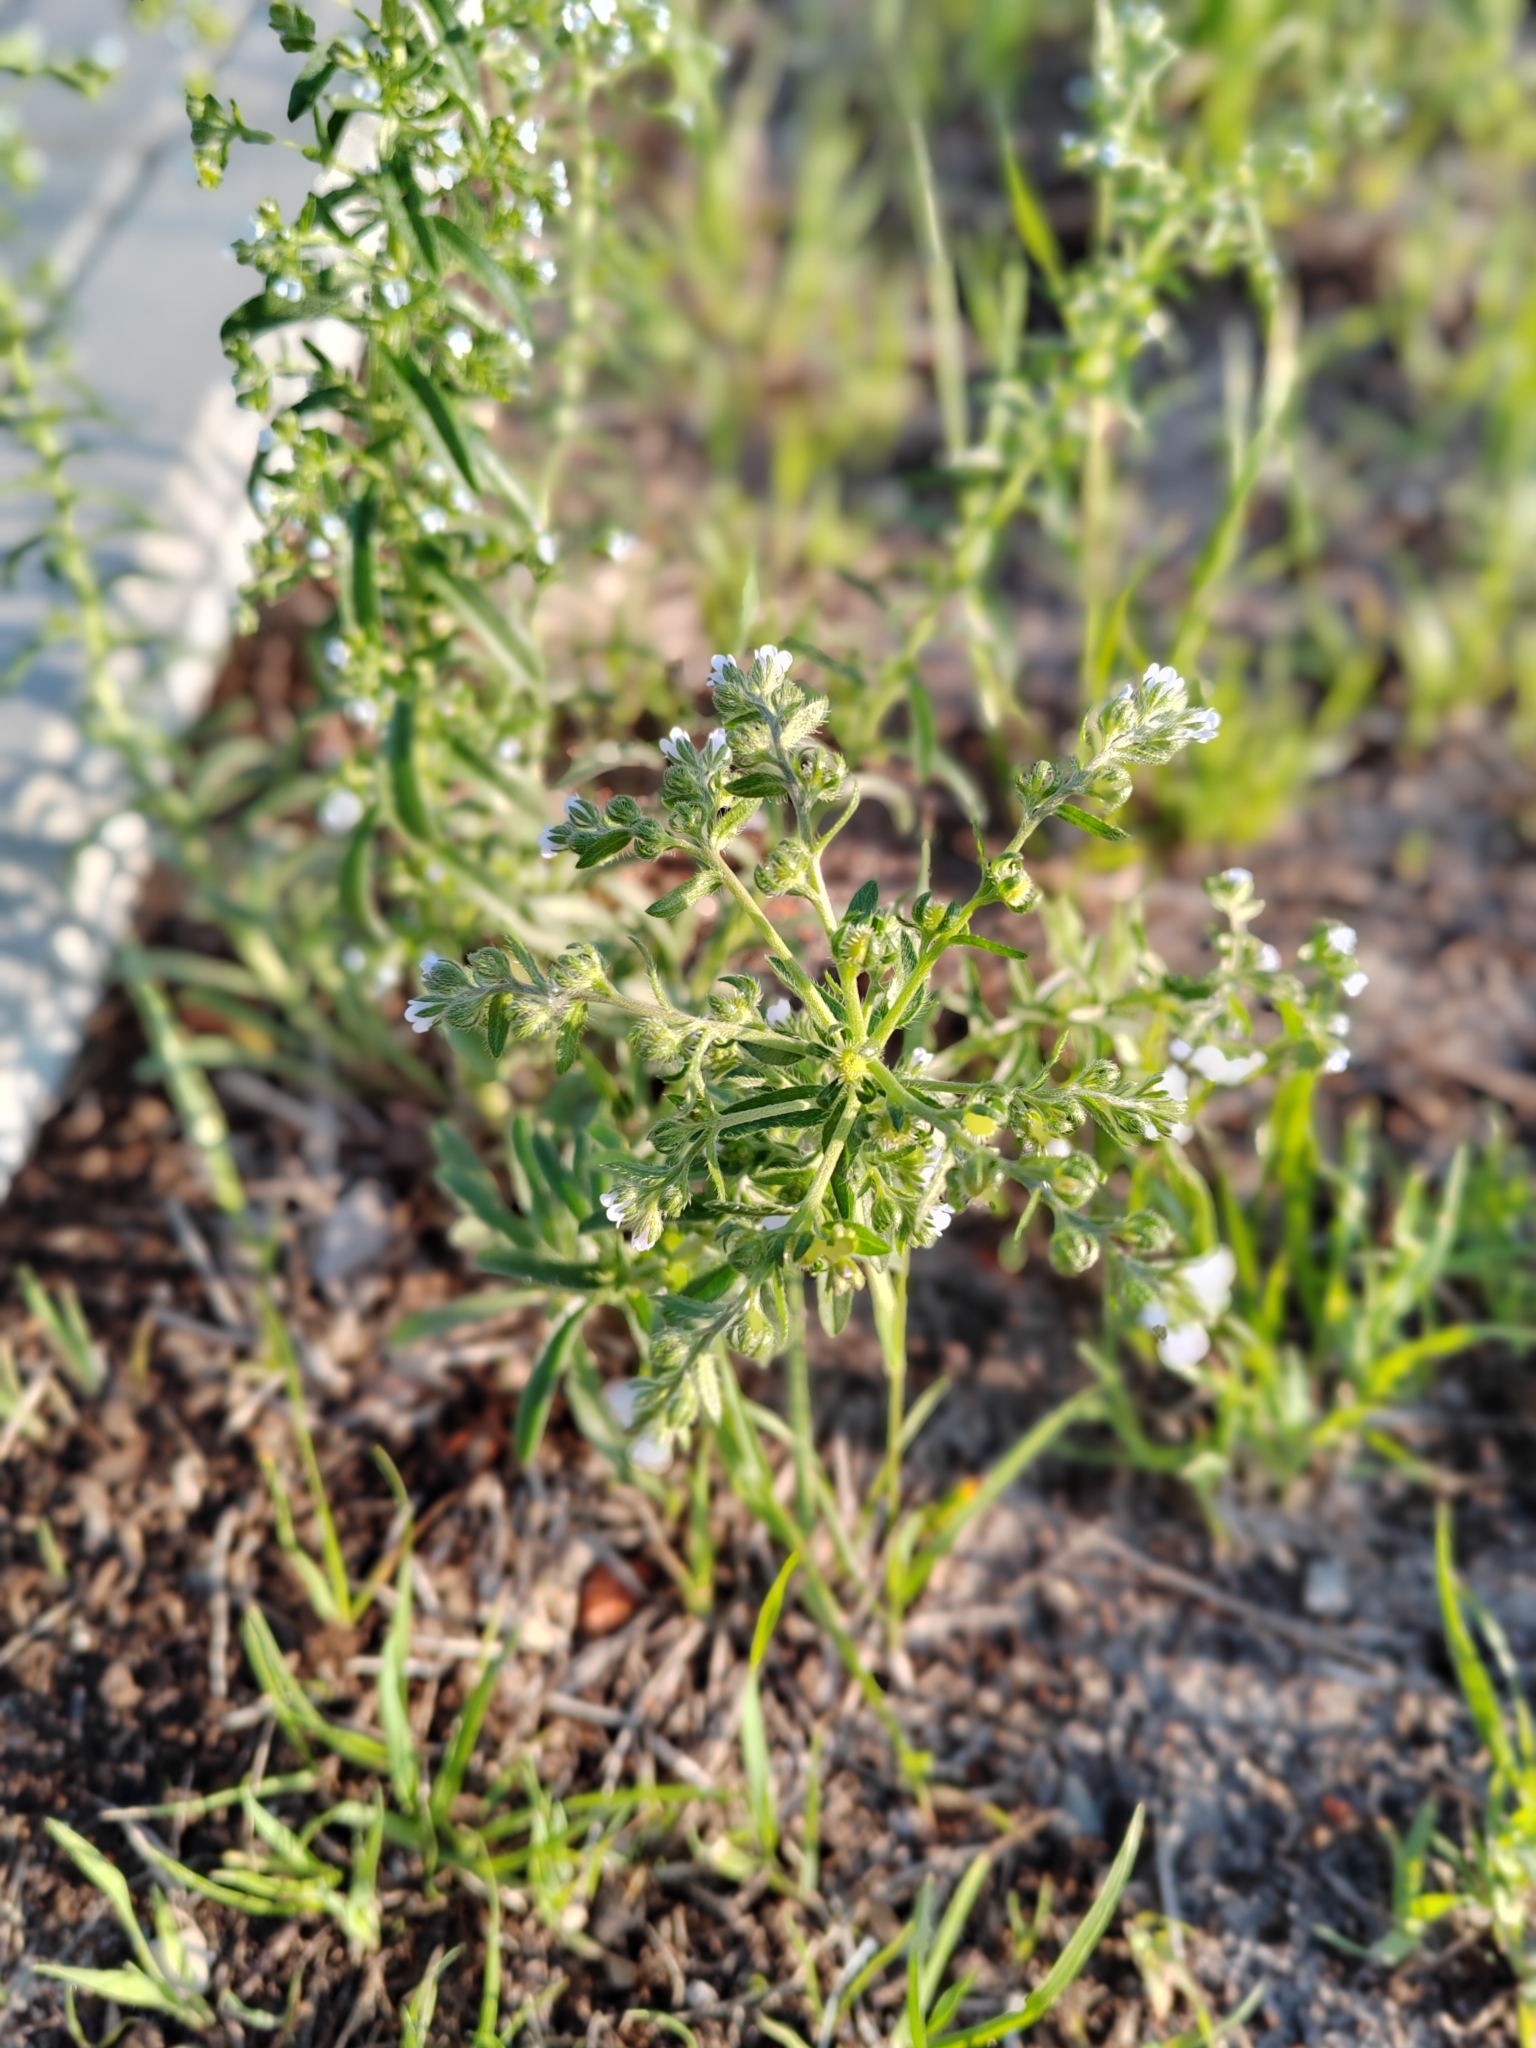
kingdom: Plantae
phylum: Tracheophyta
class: Magnoliopsida
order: Boraginales
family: Boraginaceae
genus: Lappula
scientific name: Lappula squarrosa
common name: European stickseed
